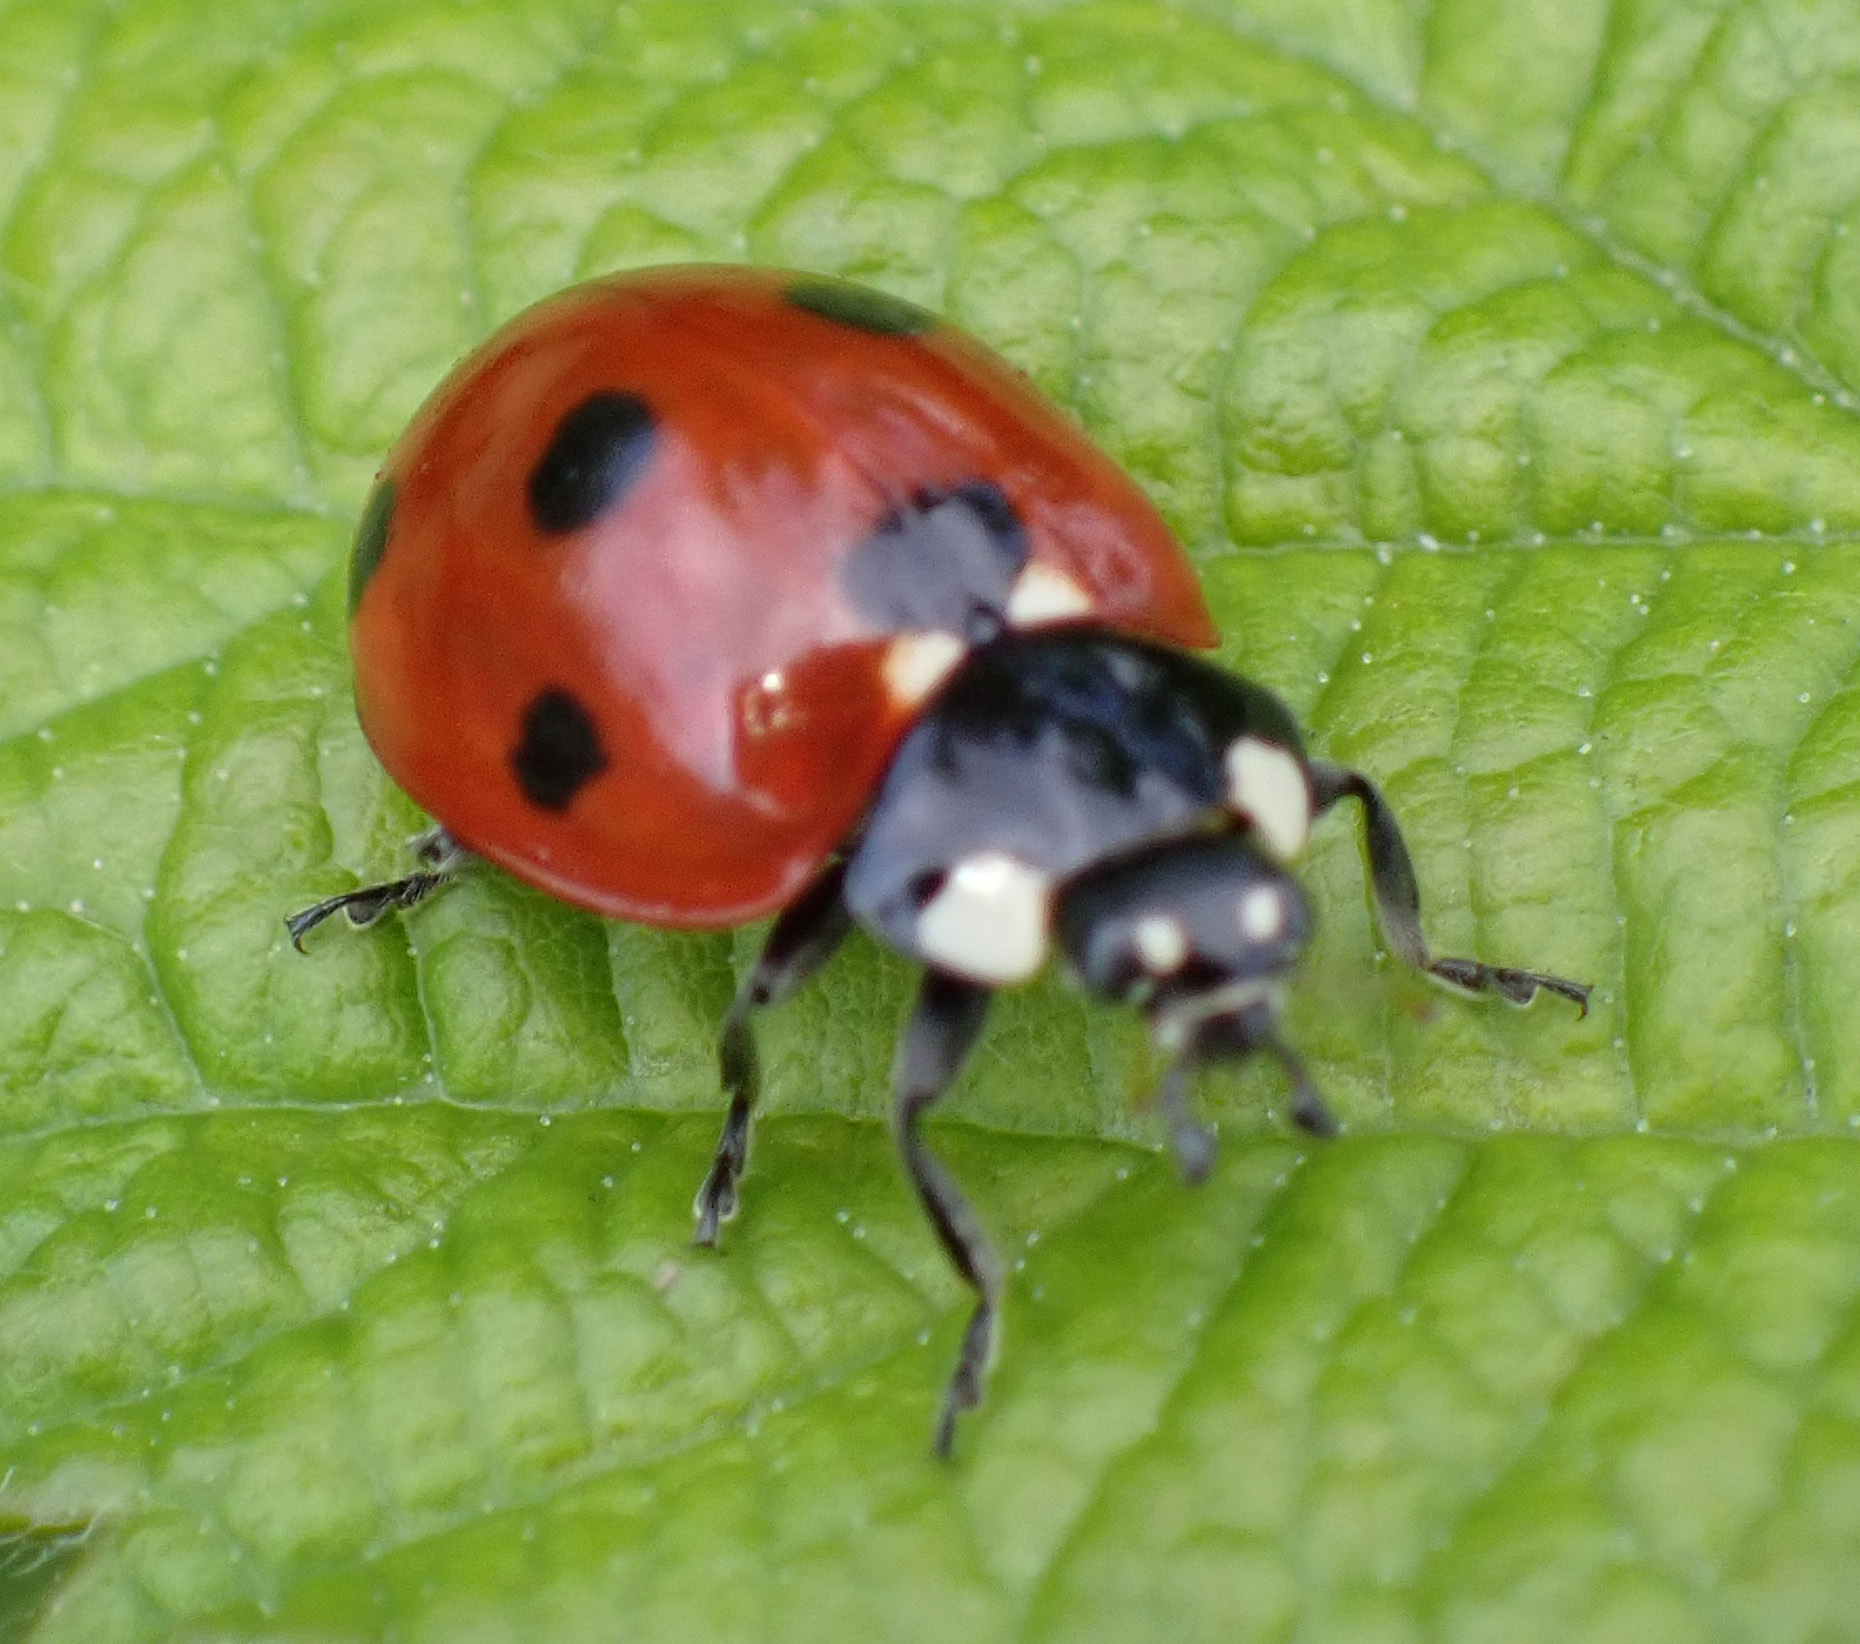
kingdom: Animalia
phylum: Arthropoda
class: Insecta
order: Coleoptera
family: Coccinellidae
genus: Coccinella
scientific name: Coccinella septempunctata
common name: Sevenspotted lady beetle
